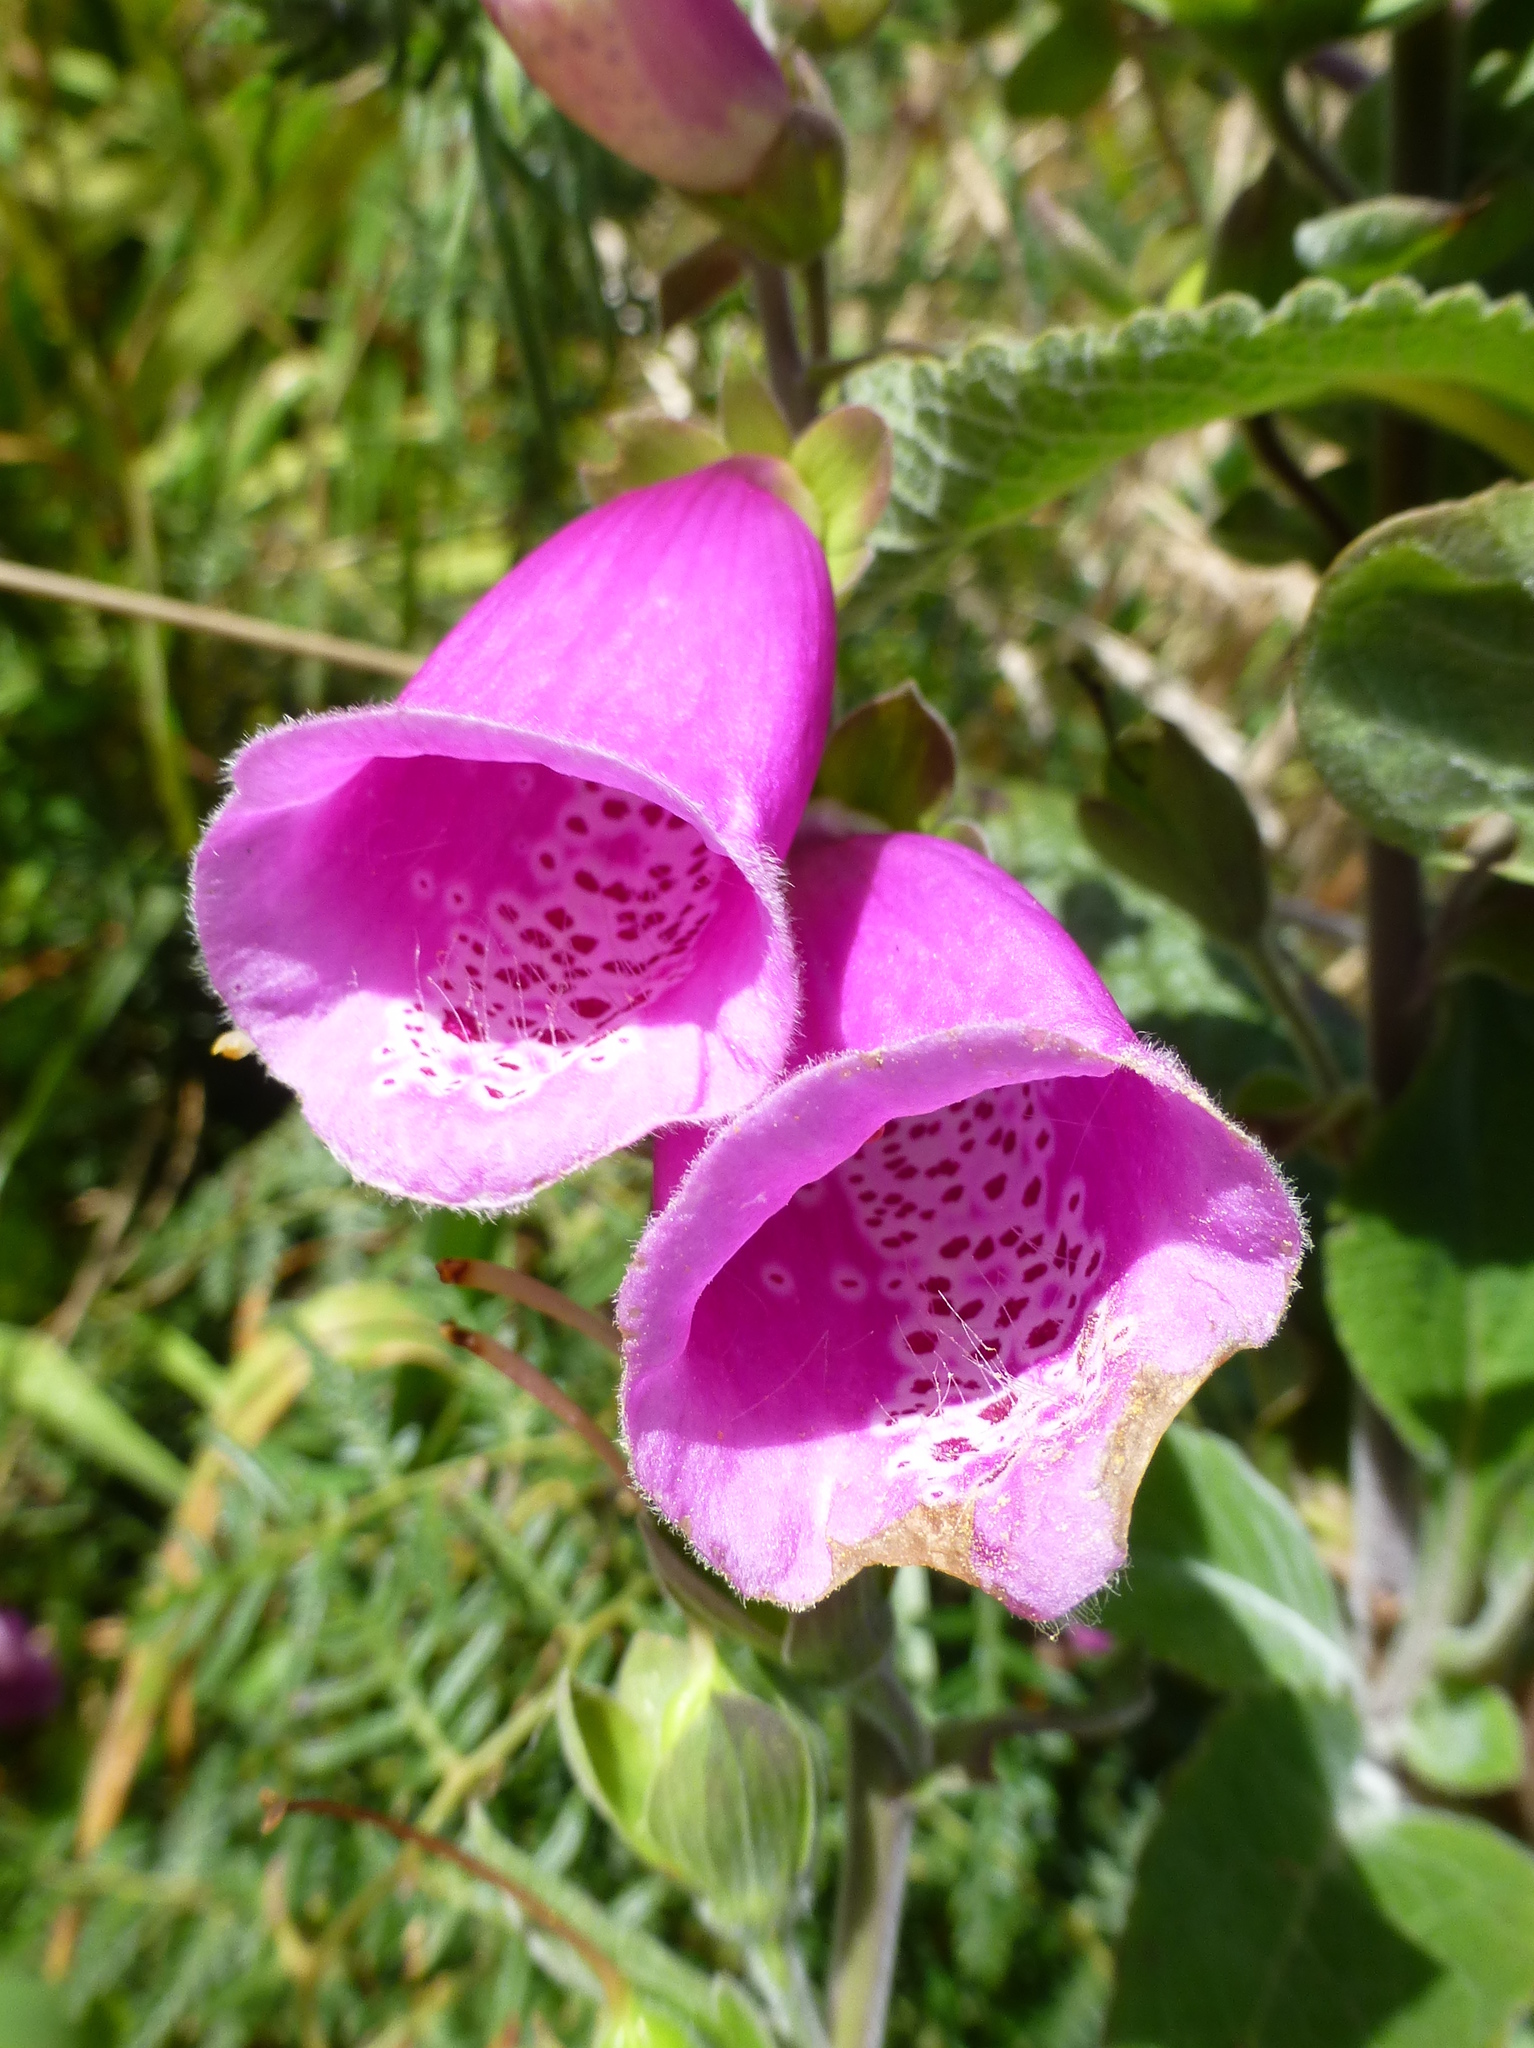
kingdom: Plantae
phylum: Tracheophyta
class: Magnoliopsida
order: Lamiales
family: Plantaginaceae
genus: Digitalis
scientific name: Digitalis purpurea
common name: Foxglove
